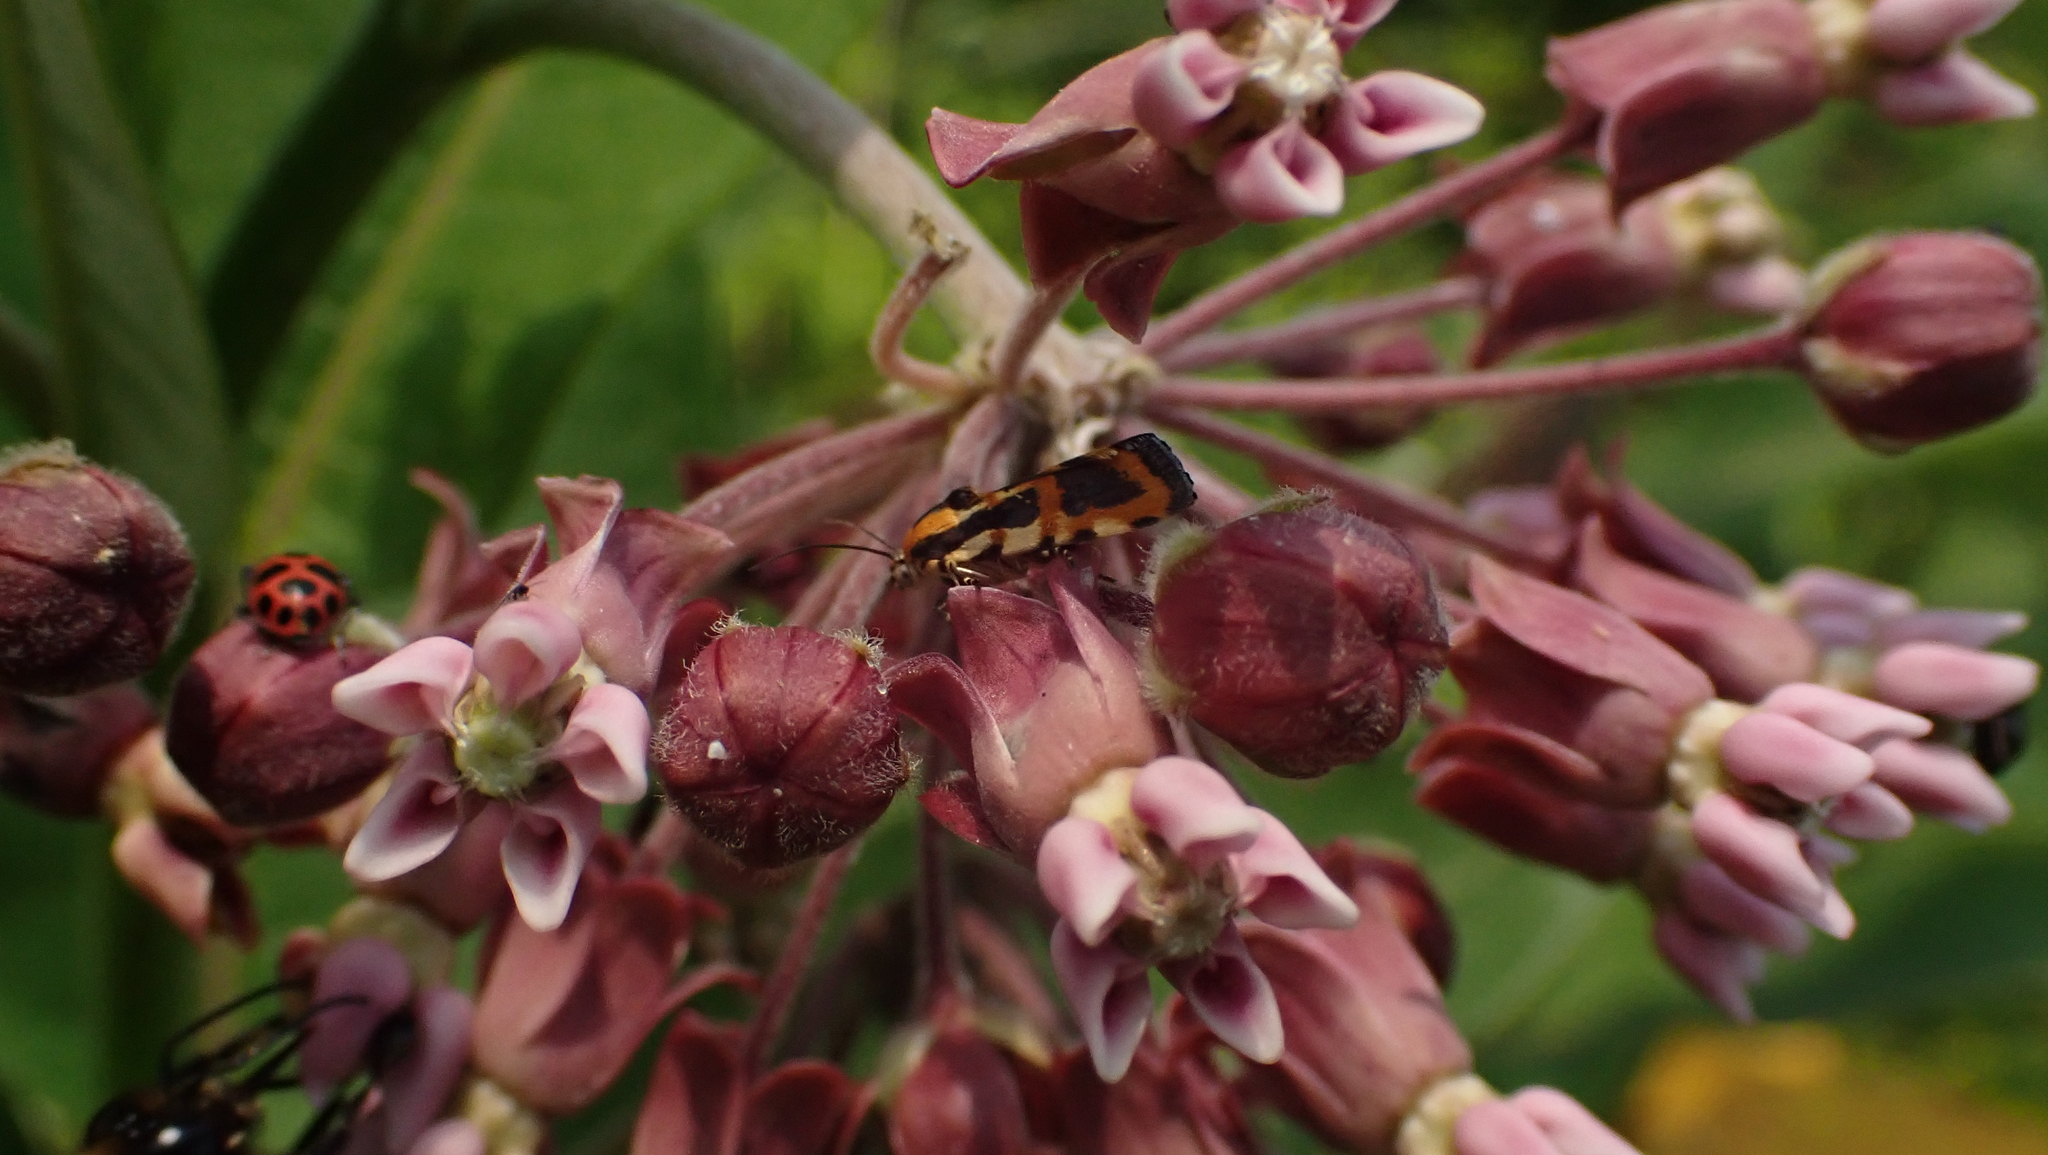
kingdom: Animalia
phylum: Arthropoda
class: Insecta
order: Lepidoptera
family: Noctuidae
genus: Acontia
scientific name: Acontia leo
